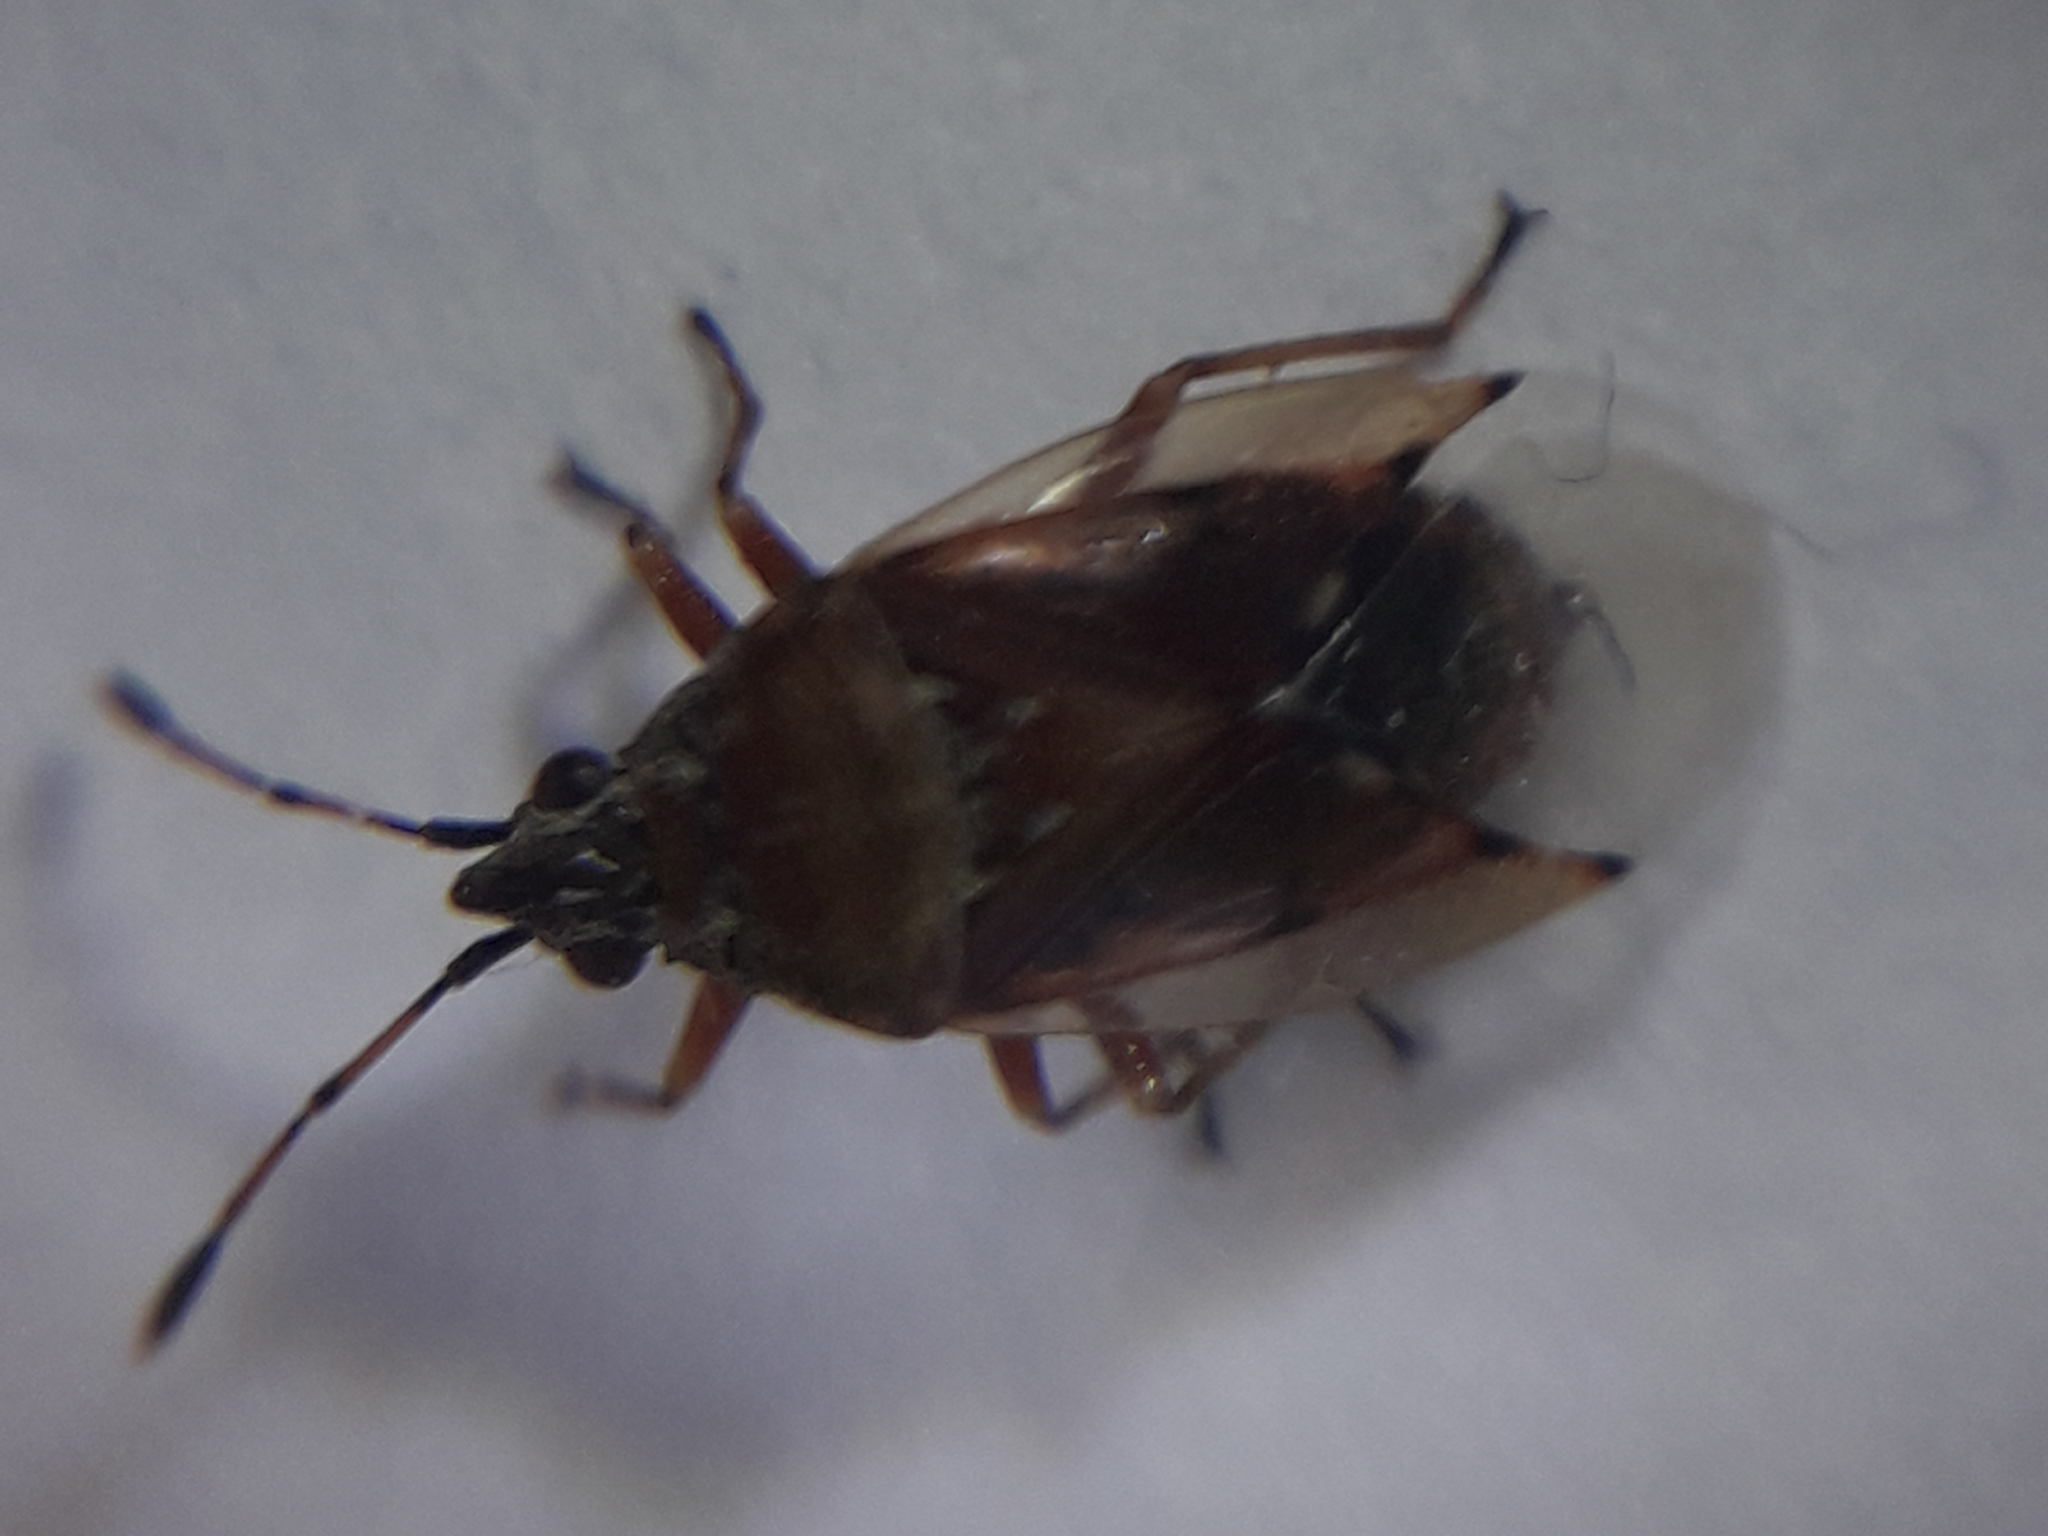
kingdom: Animalia
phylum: Arthropoda
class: Insecta
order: Hemiptera
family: Lygaeidae
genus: Kleidocerys
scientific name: Kleidocerys resedae
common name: Birch catkin bug
